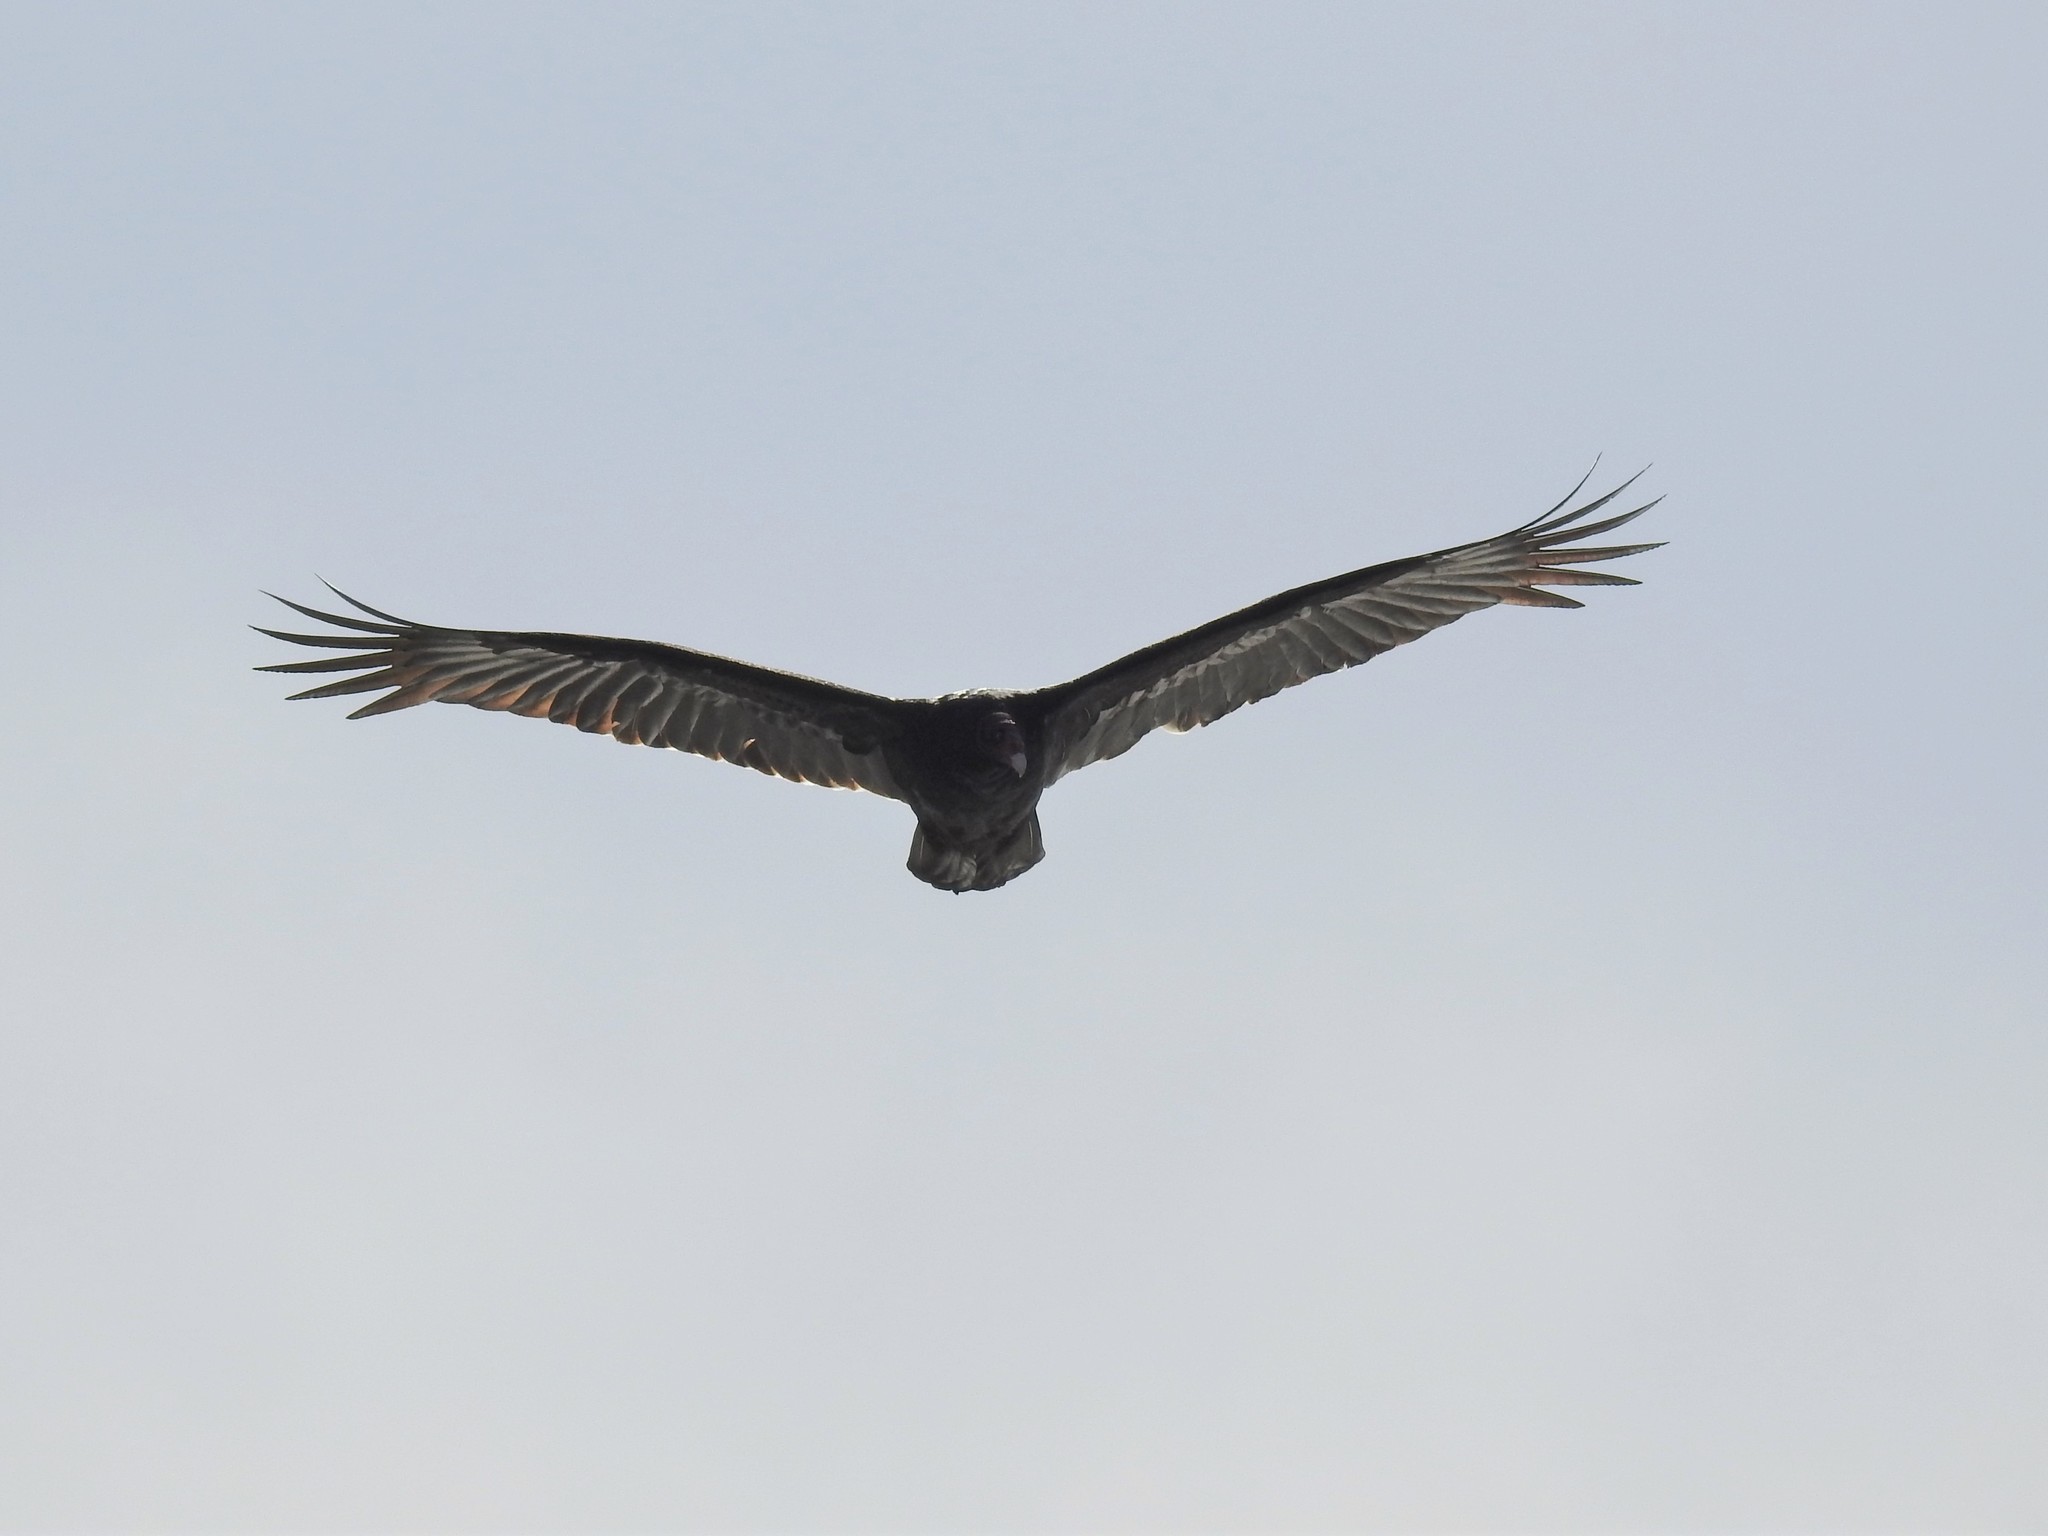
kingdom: Animalia
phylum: Chordata
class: Aves
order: Accipitriformes
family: Cathartidae
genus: Cathartes
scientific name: Cathartes aura
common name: Turkey vulture
